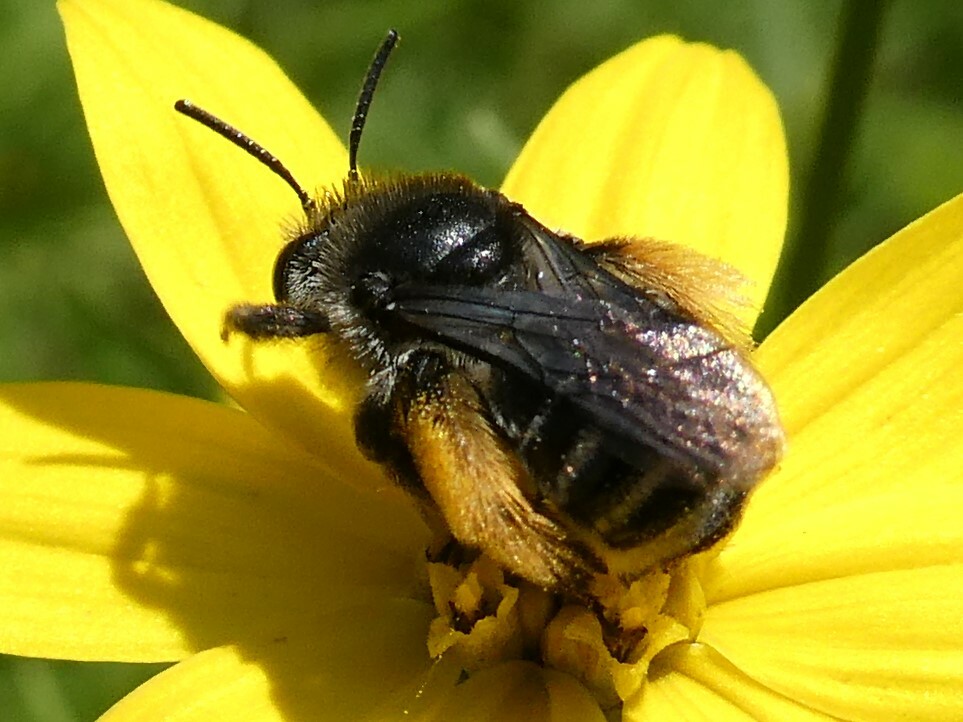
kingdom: Animalia
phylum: Arthropoda
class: Insecta
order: Hymenoptera
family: Apidae
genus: Melissodes
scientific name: Melissodes illatus
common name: Valiant long-horned bee
